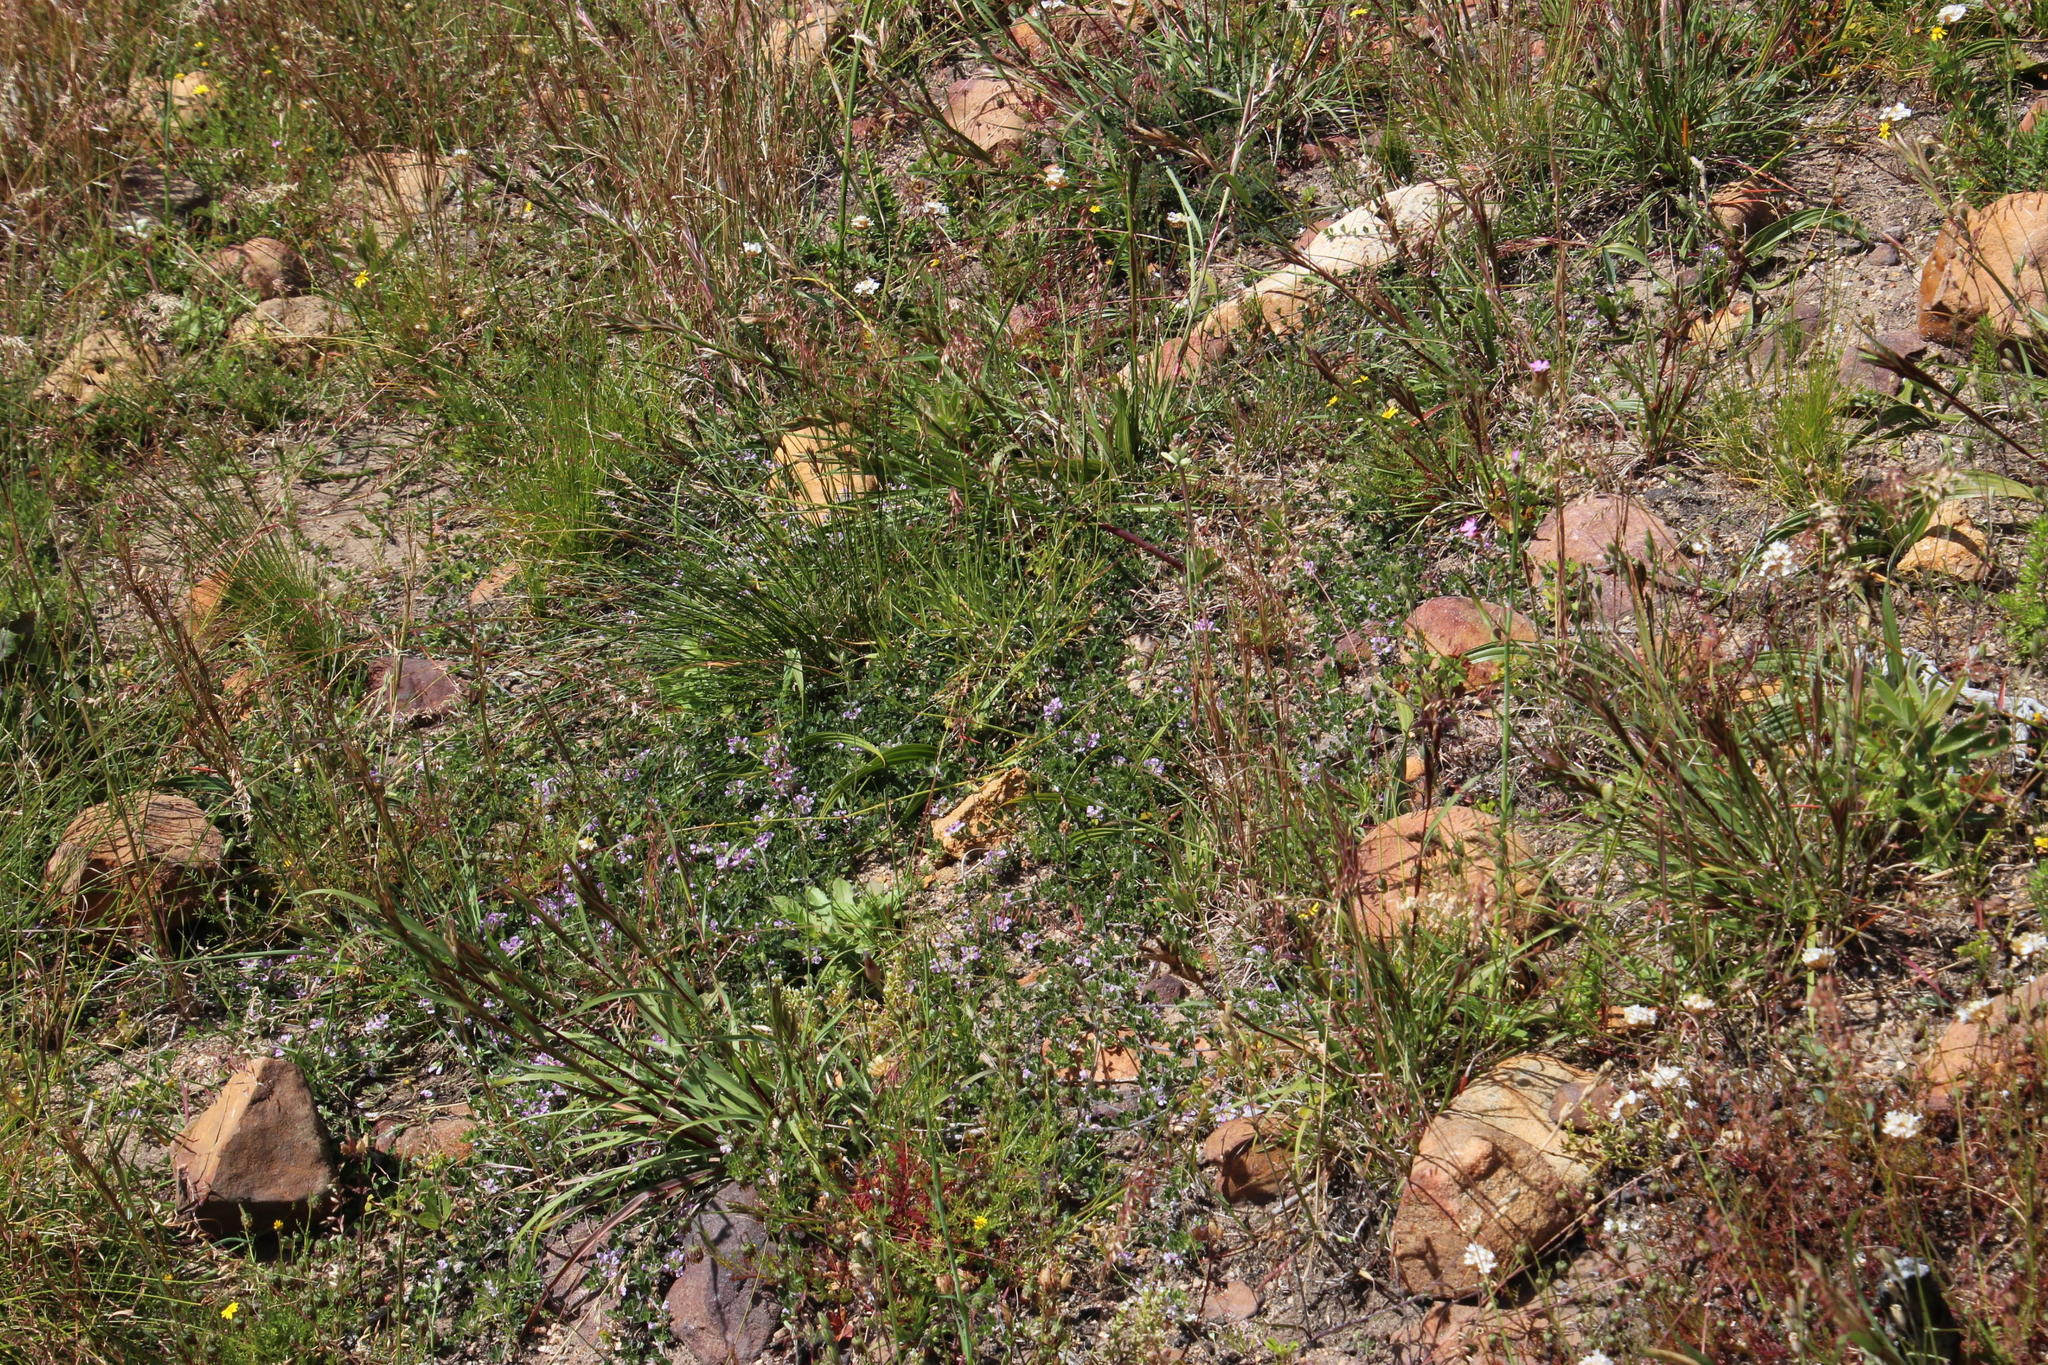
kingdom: Plantae
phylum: Tracheophyta
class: Magnoliopsida
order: Fabales
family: Fabaceae
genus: Psoralea
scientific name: Psoralea fruticans
